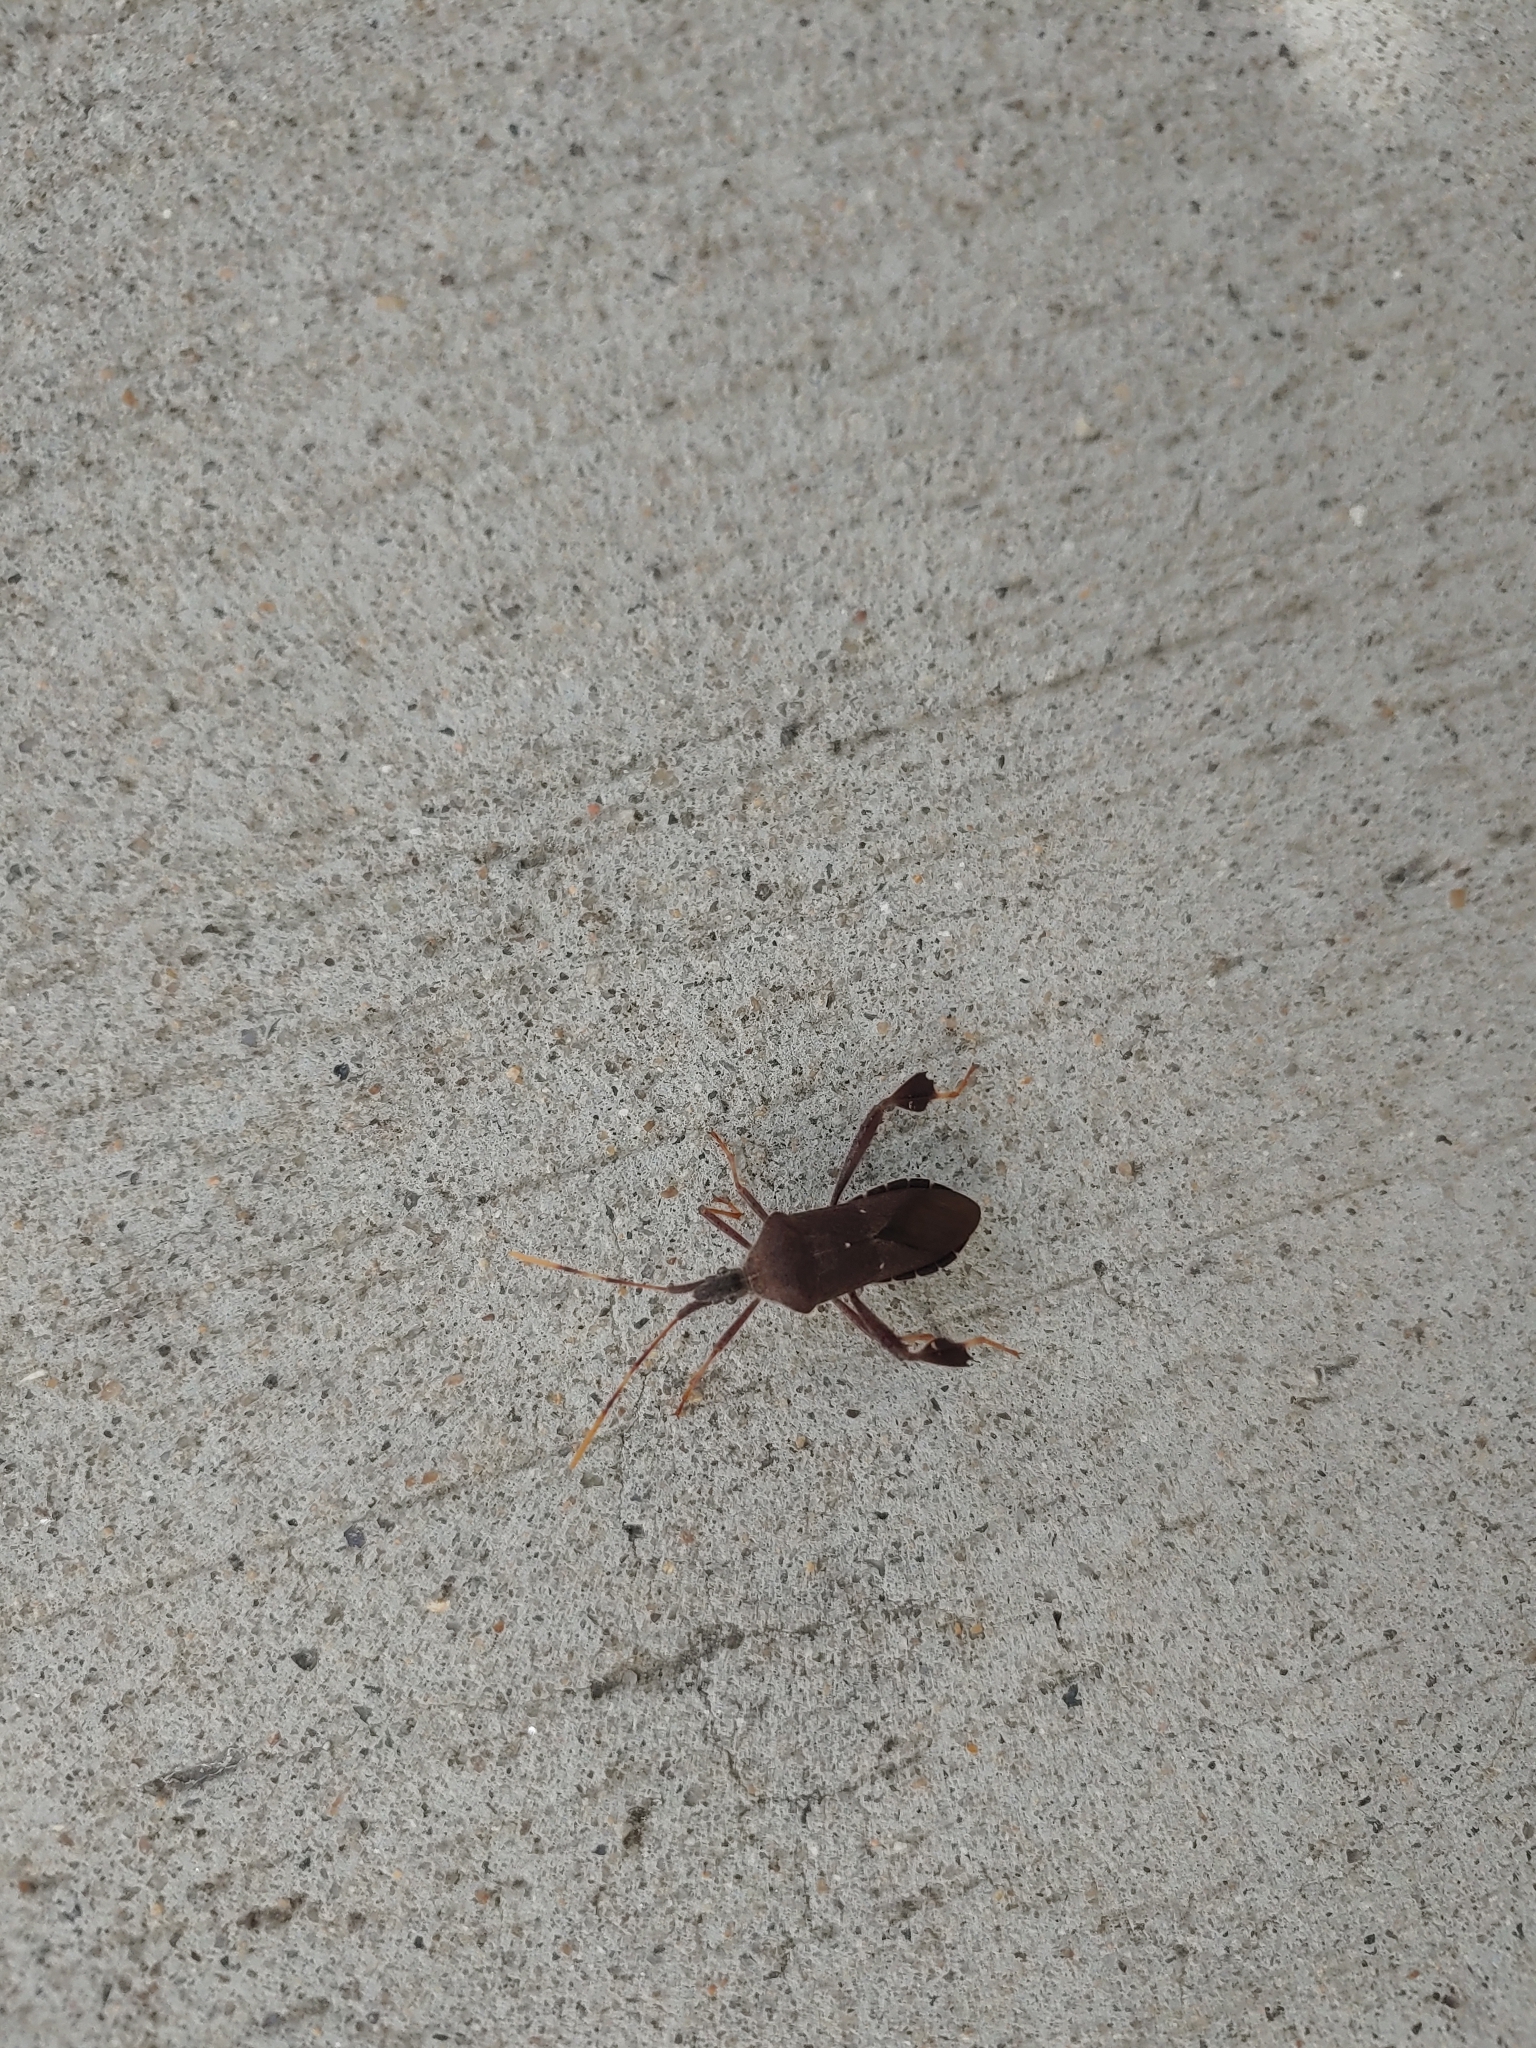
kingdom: Animalia
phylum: Arthropoda
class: Insecta
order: Hemiptera
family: Coreidae
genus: Leptoglossus
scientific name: Leptoglossus oppositus
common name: Northern leaf-footed bug
